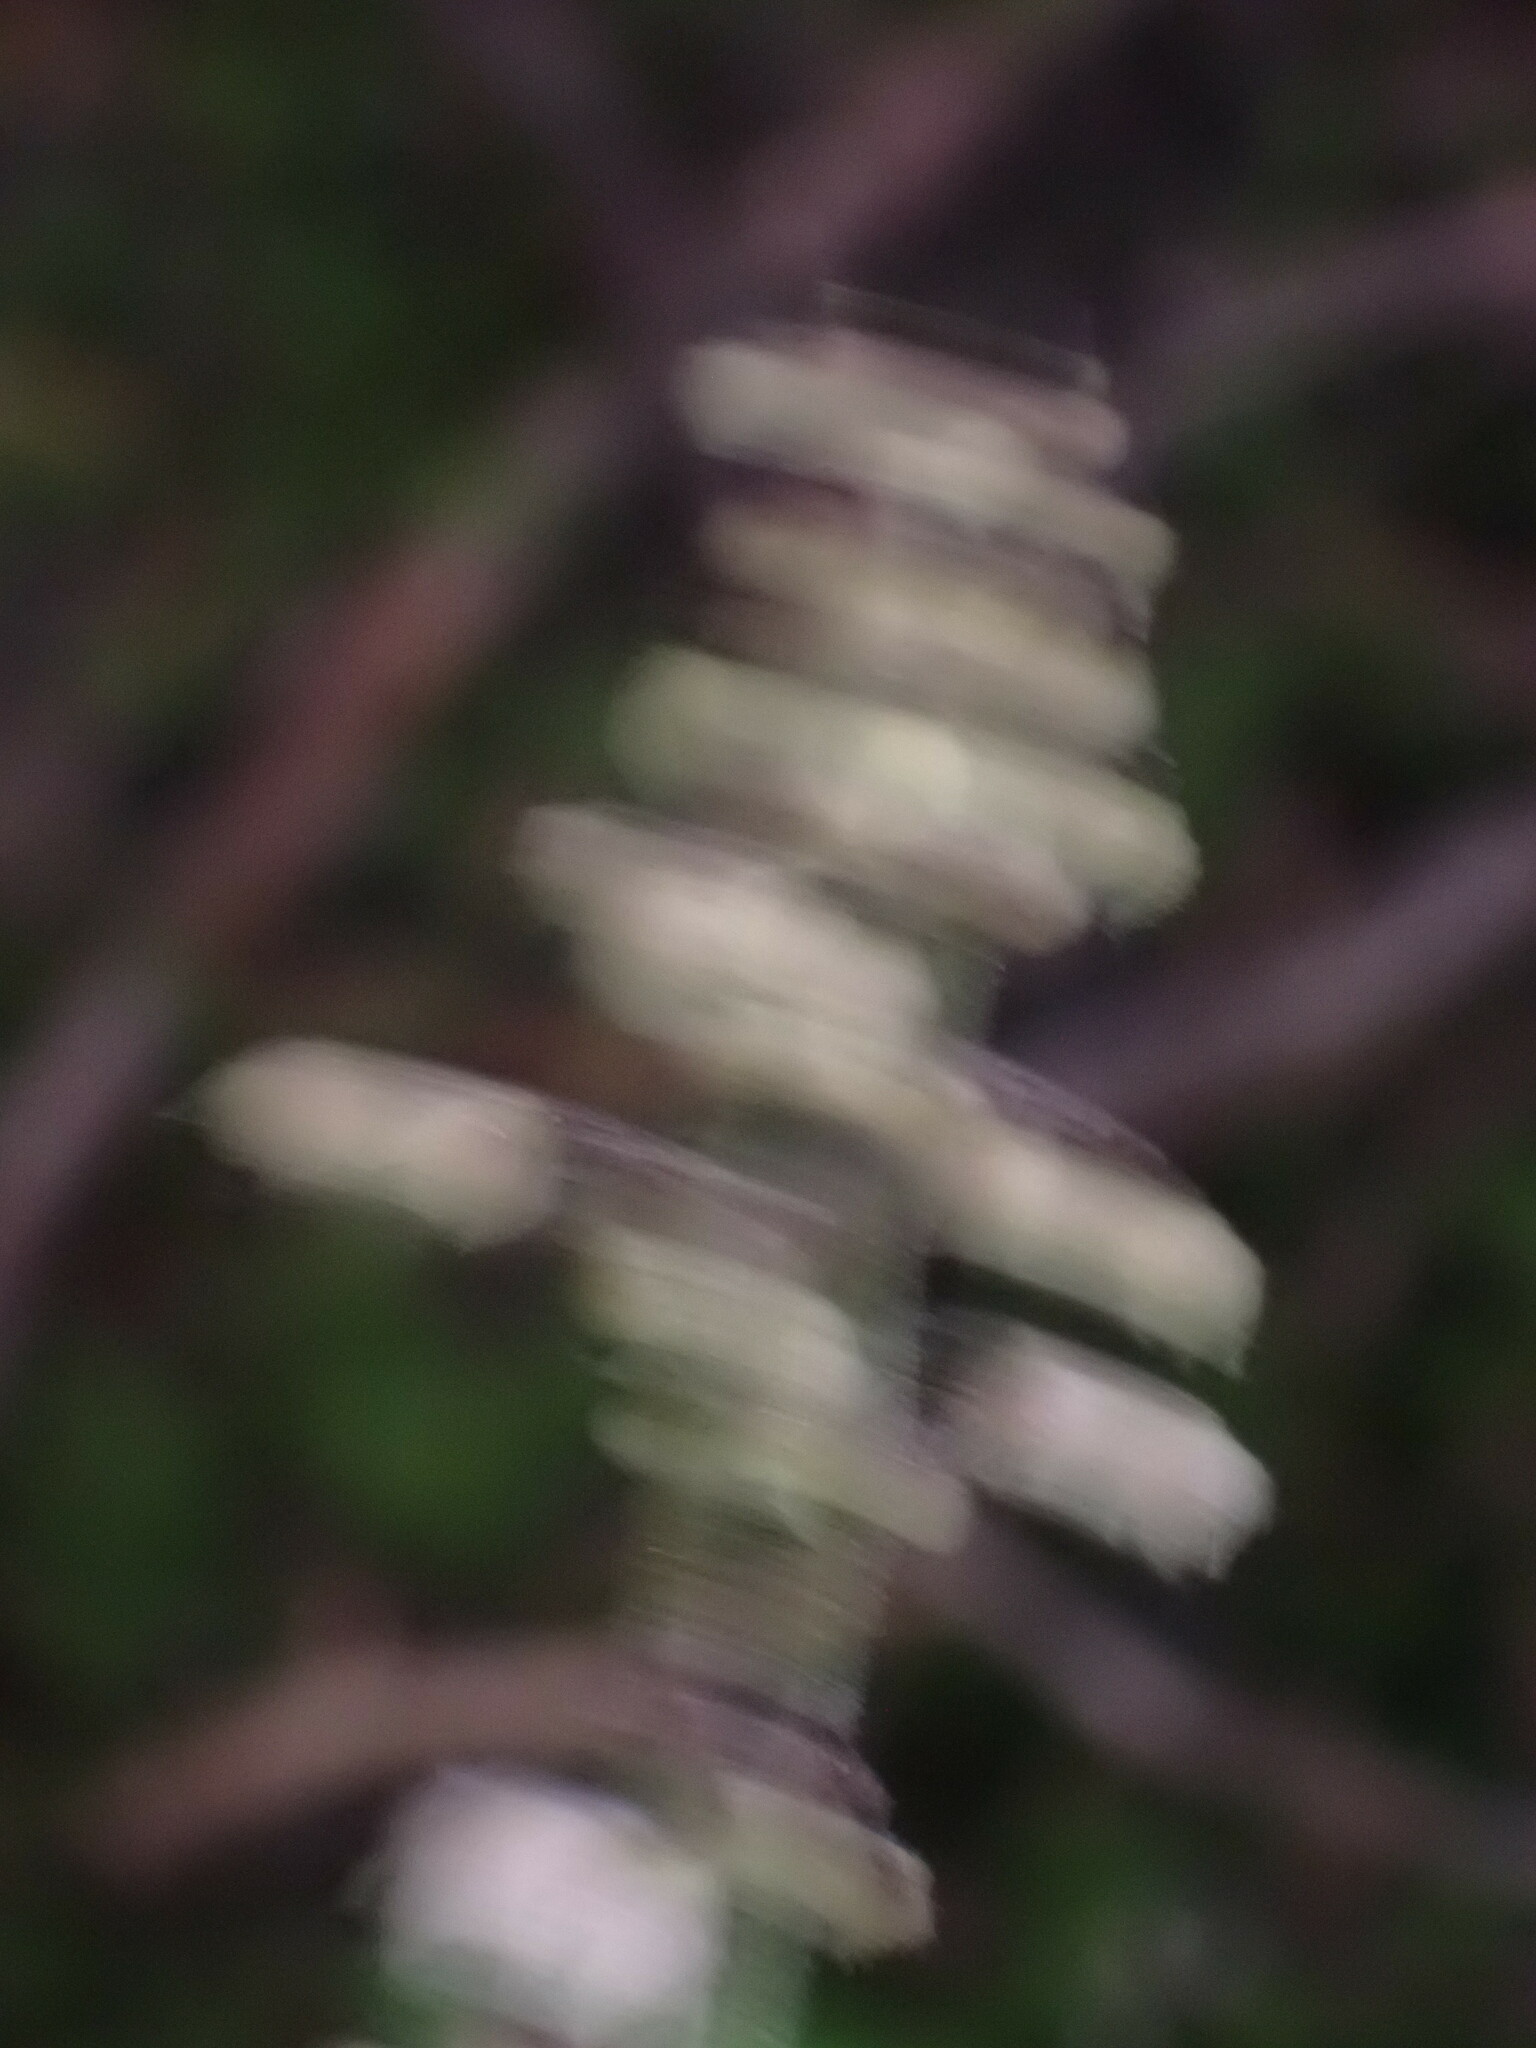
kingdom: Plantae
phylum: Tracheophyta
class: Magnoliopsida
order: Saxifragales
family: Saxifragaceae
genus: Tiarella
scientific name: Tiarella trifoliata
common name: Sugar-scoop
